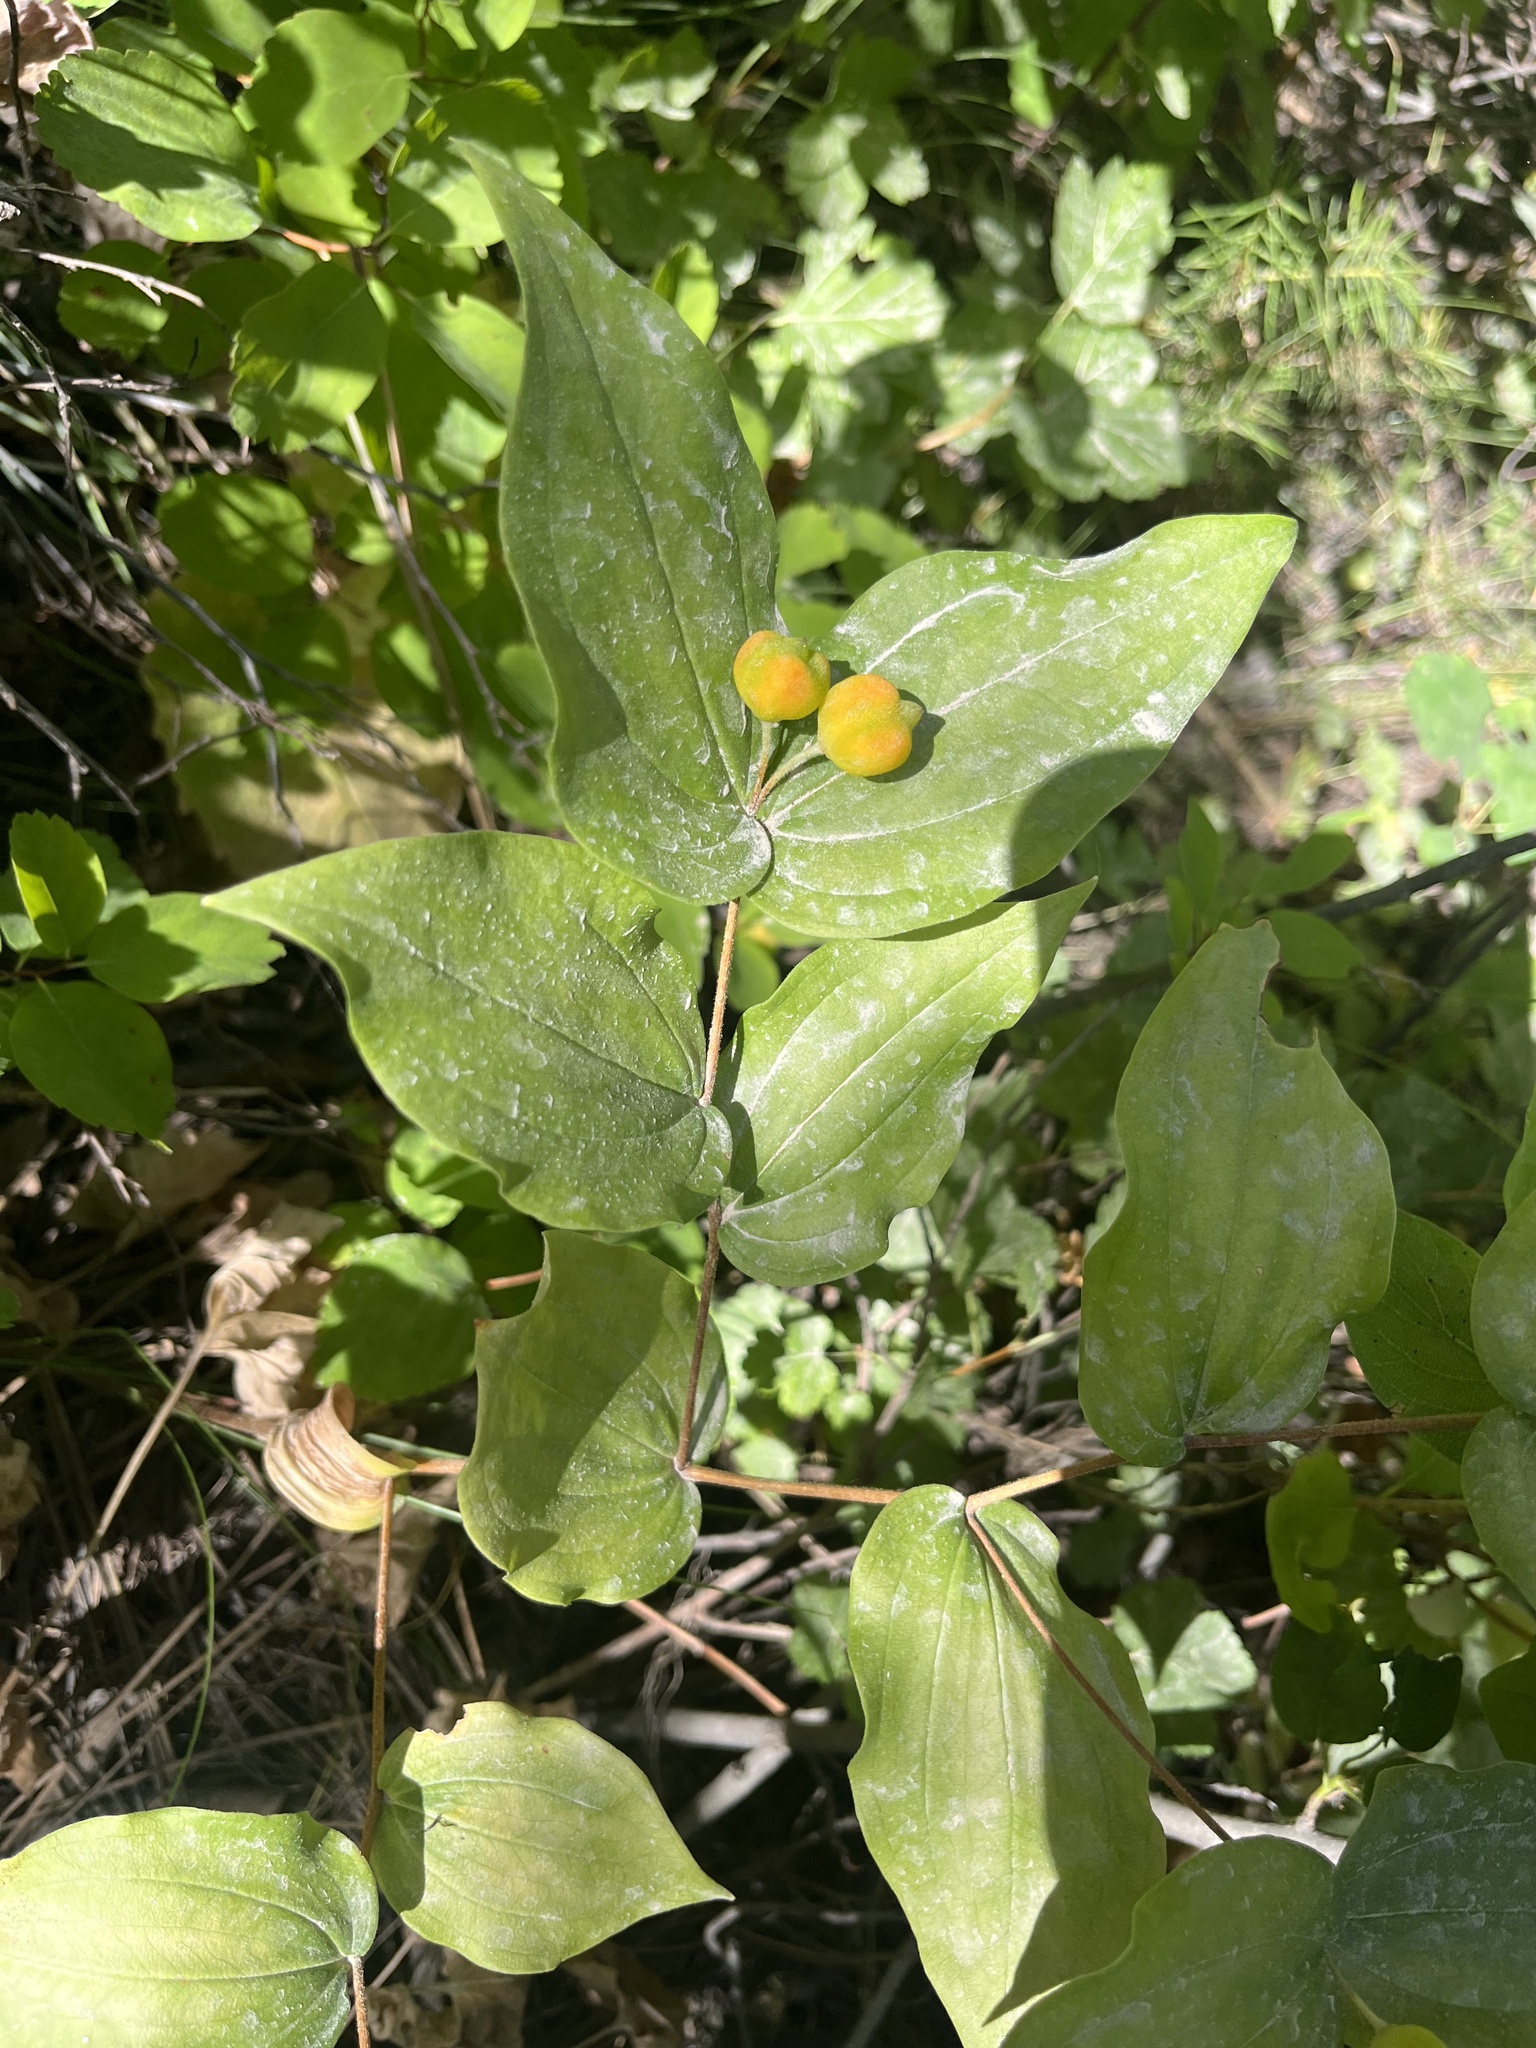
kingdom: Plantae
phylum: Tracheophyta
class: Liliopsida
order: Liliales
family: Liliaceae
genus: Prosartes
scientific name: Prosartes trachycarpa
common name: Rough-fruit fairy-bells
